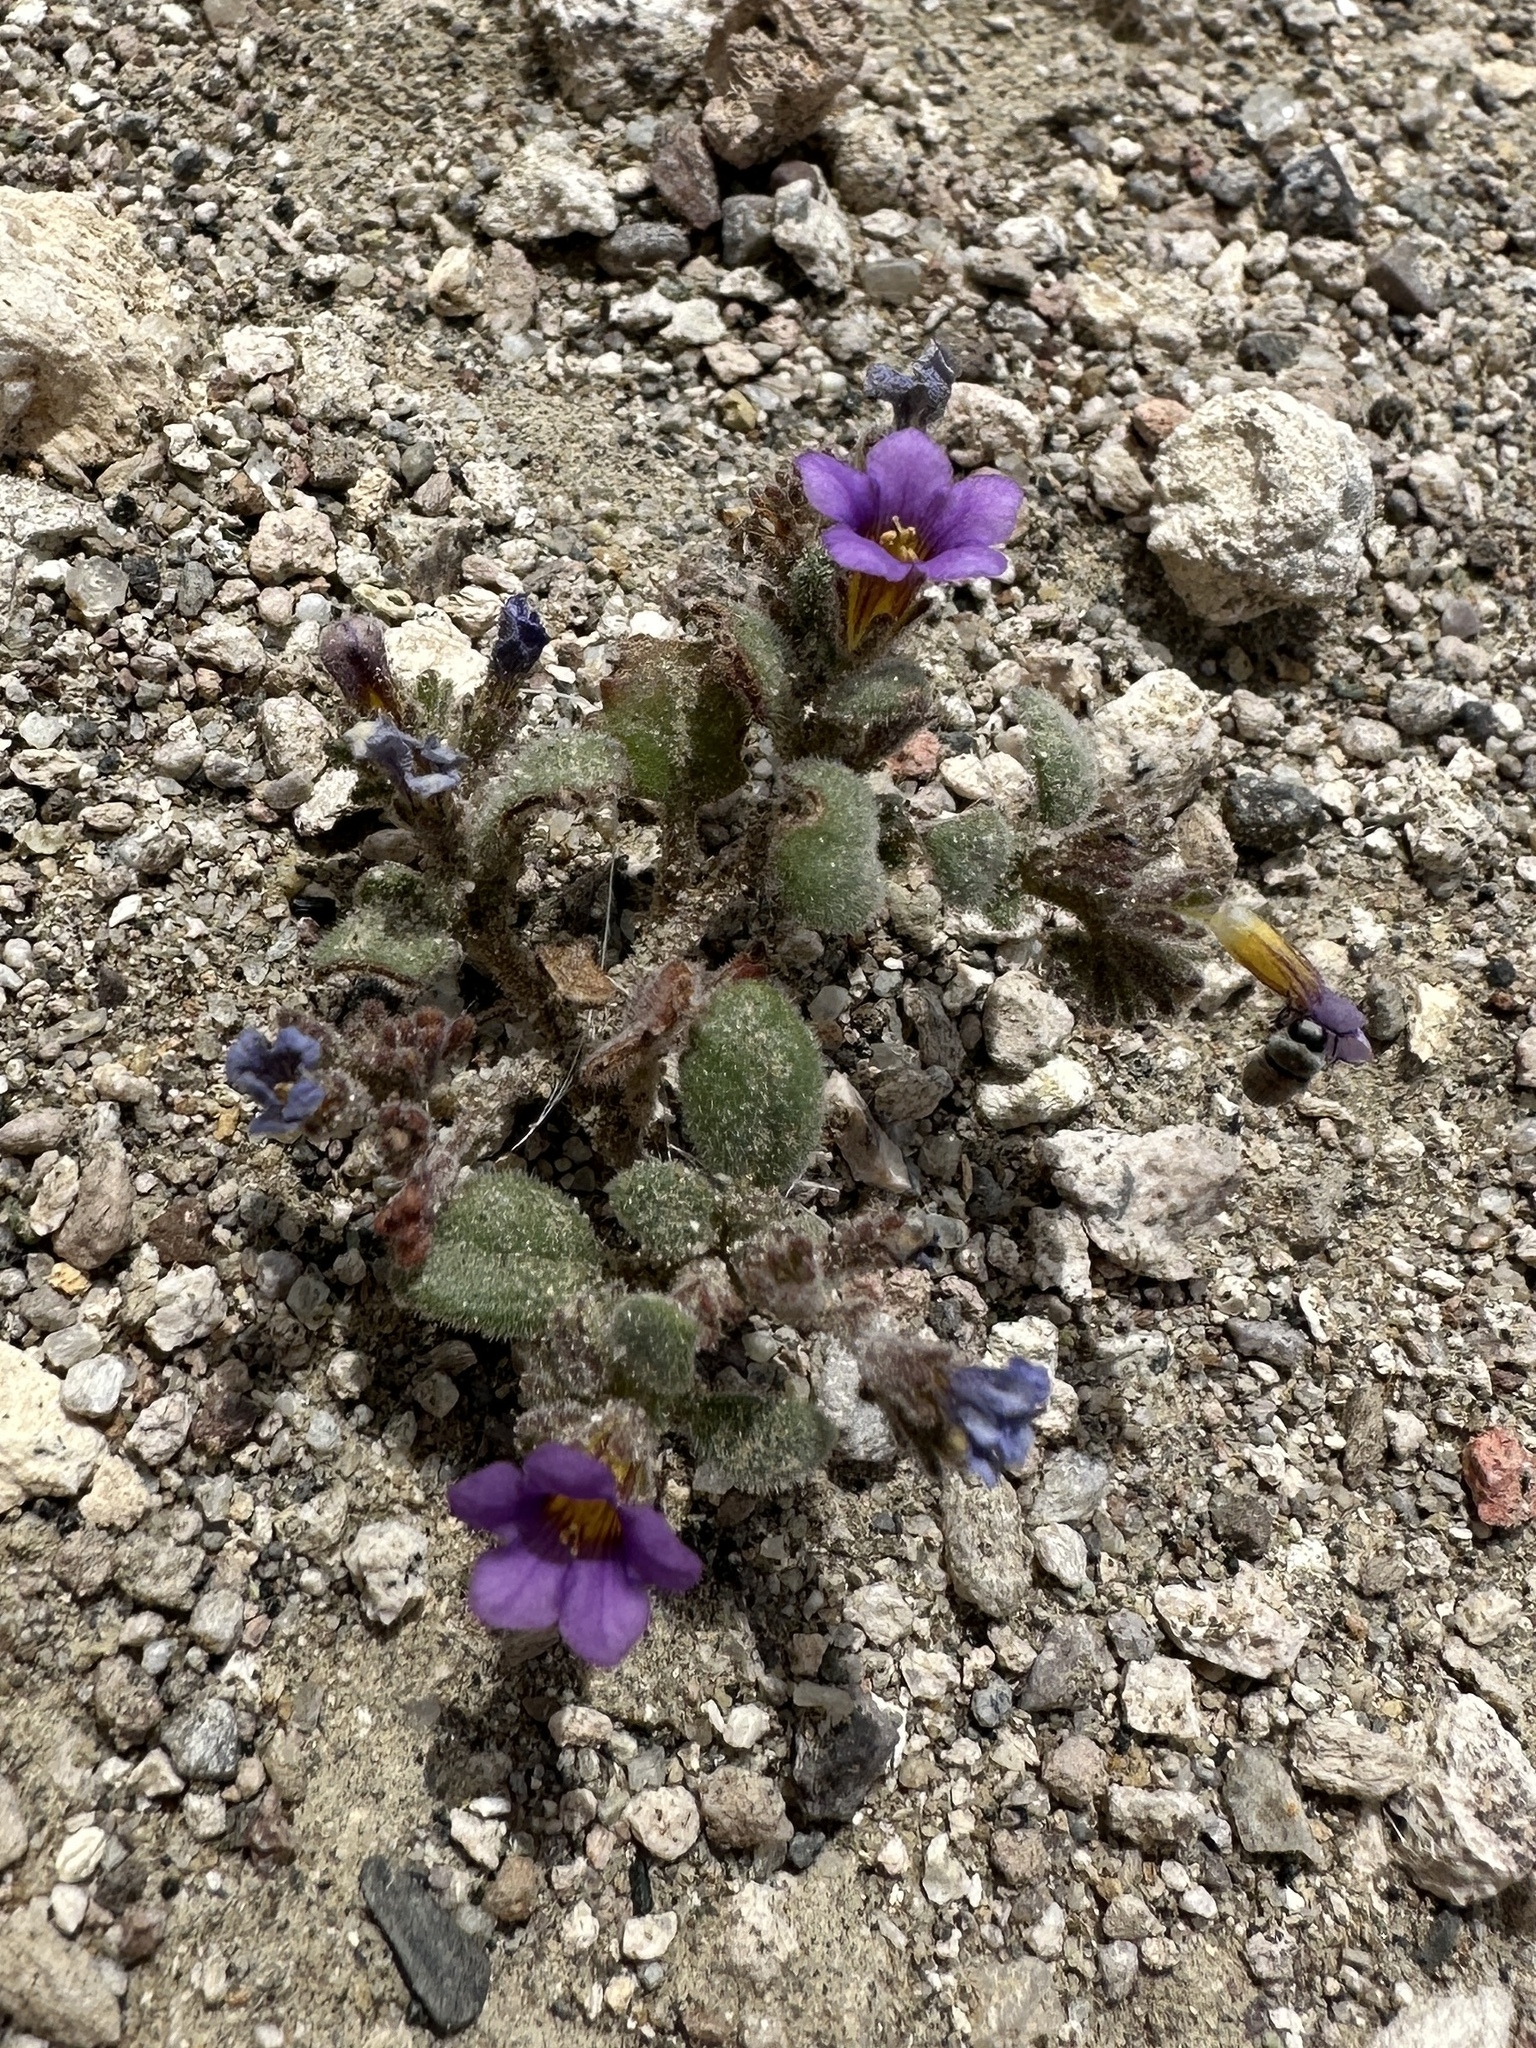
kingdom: Plantae
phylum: Tracheophyta
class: Magnoliopsida
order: Boraginales
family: Hydrophyllaceae
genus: Phacelia
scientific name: Phacelia gymnoclada
